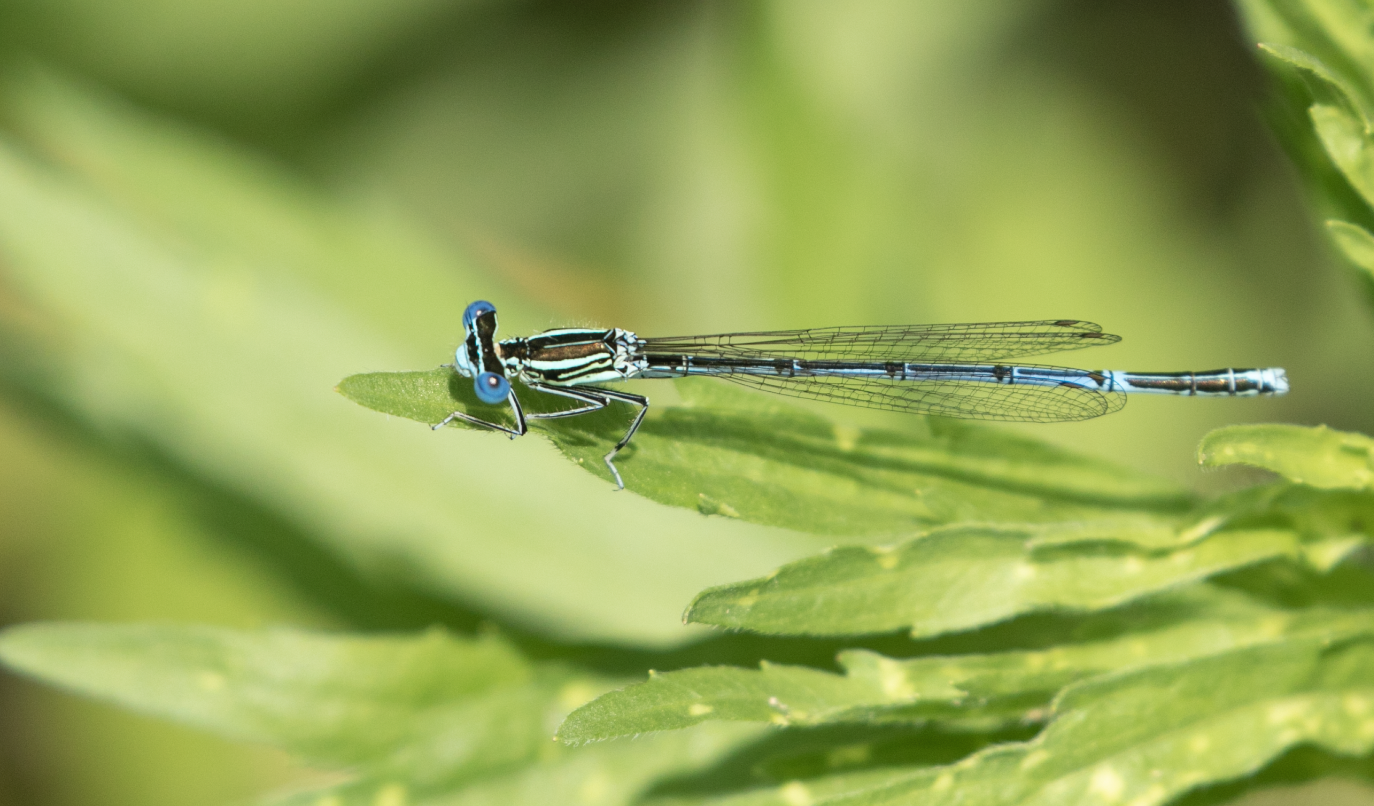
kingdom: Animalia
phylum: Arthropoda
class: Insecta
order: Odonata
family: Platycnemididae
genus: Platycnemis
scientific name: Platycnemis pennipes
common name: White-legged damselfly
